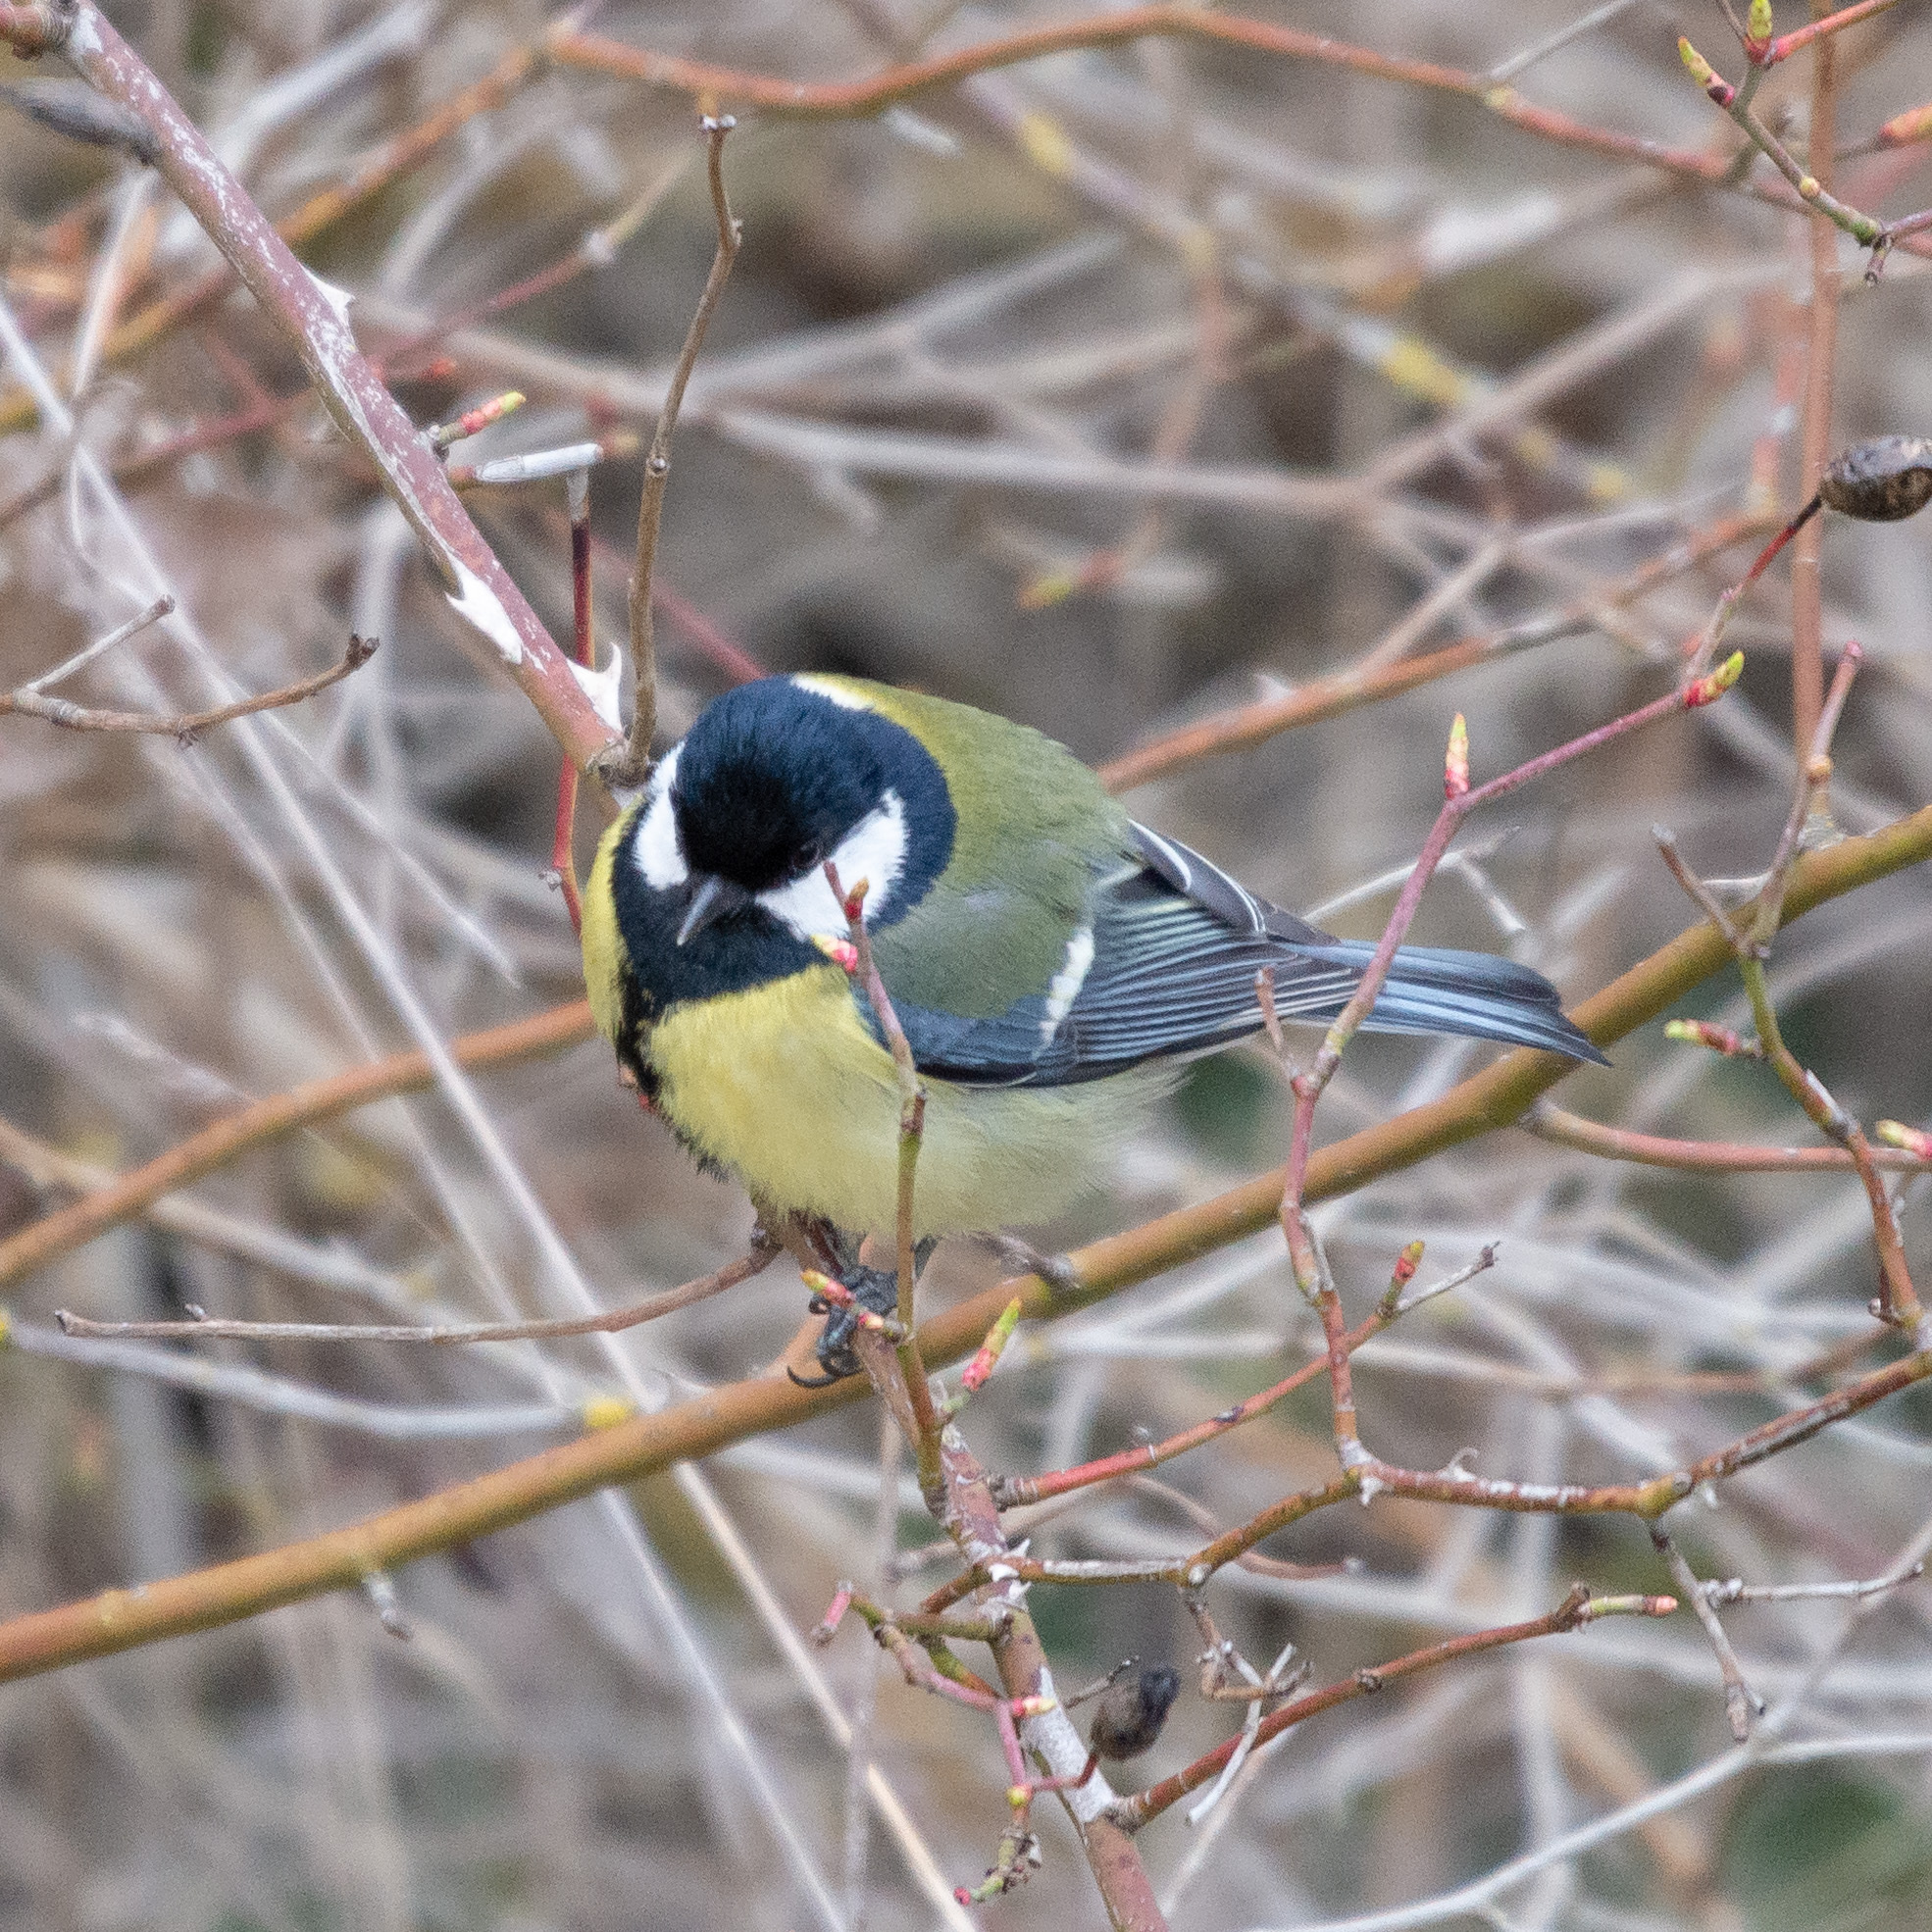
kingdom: Animalia
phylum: Chordata
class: Aves
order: Passeriformes
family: Paridae
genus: Parus
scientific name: Parus major
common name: Great tit
